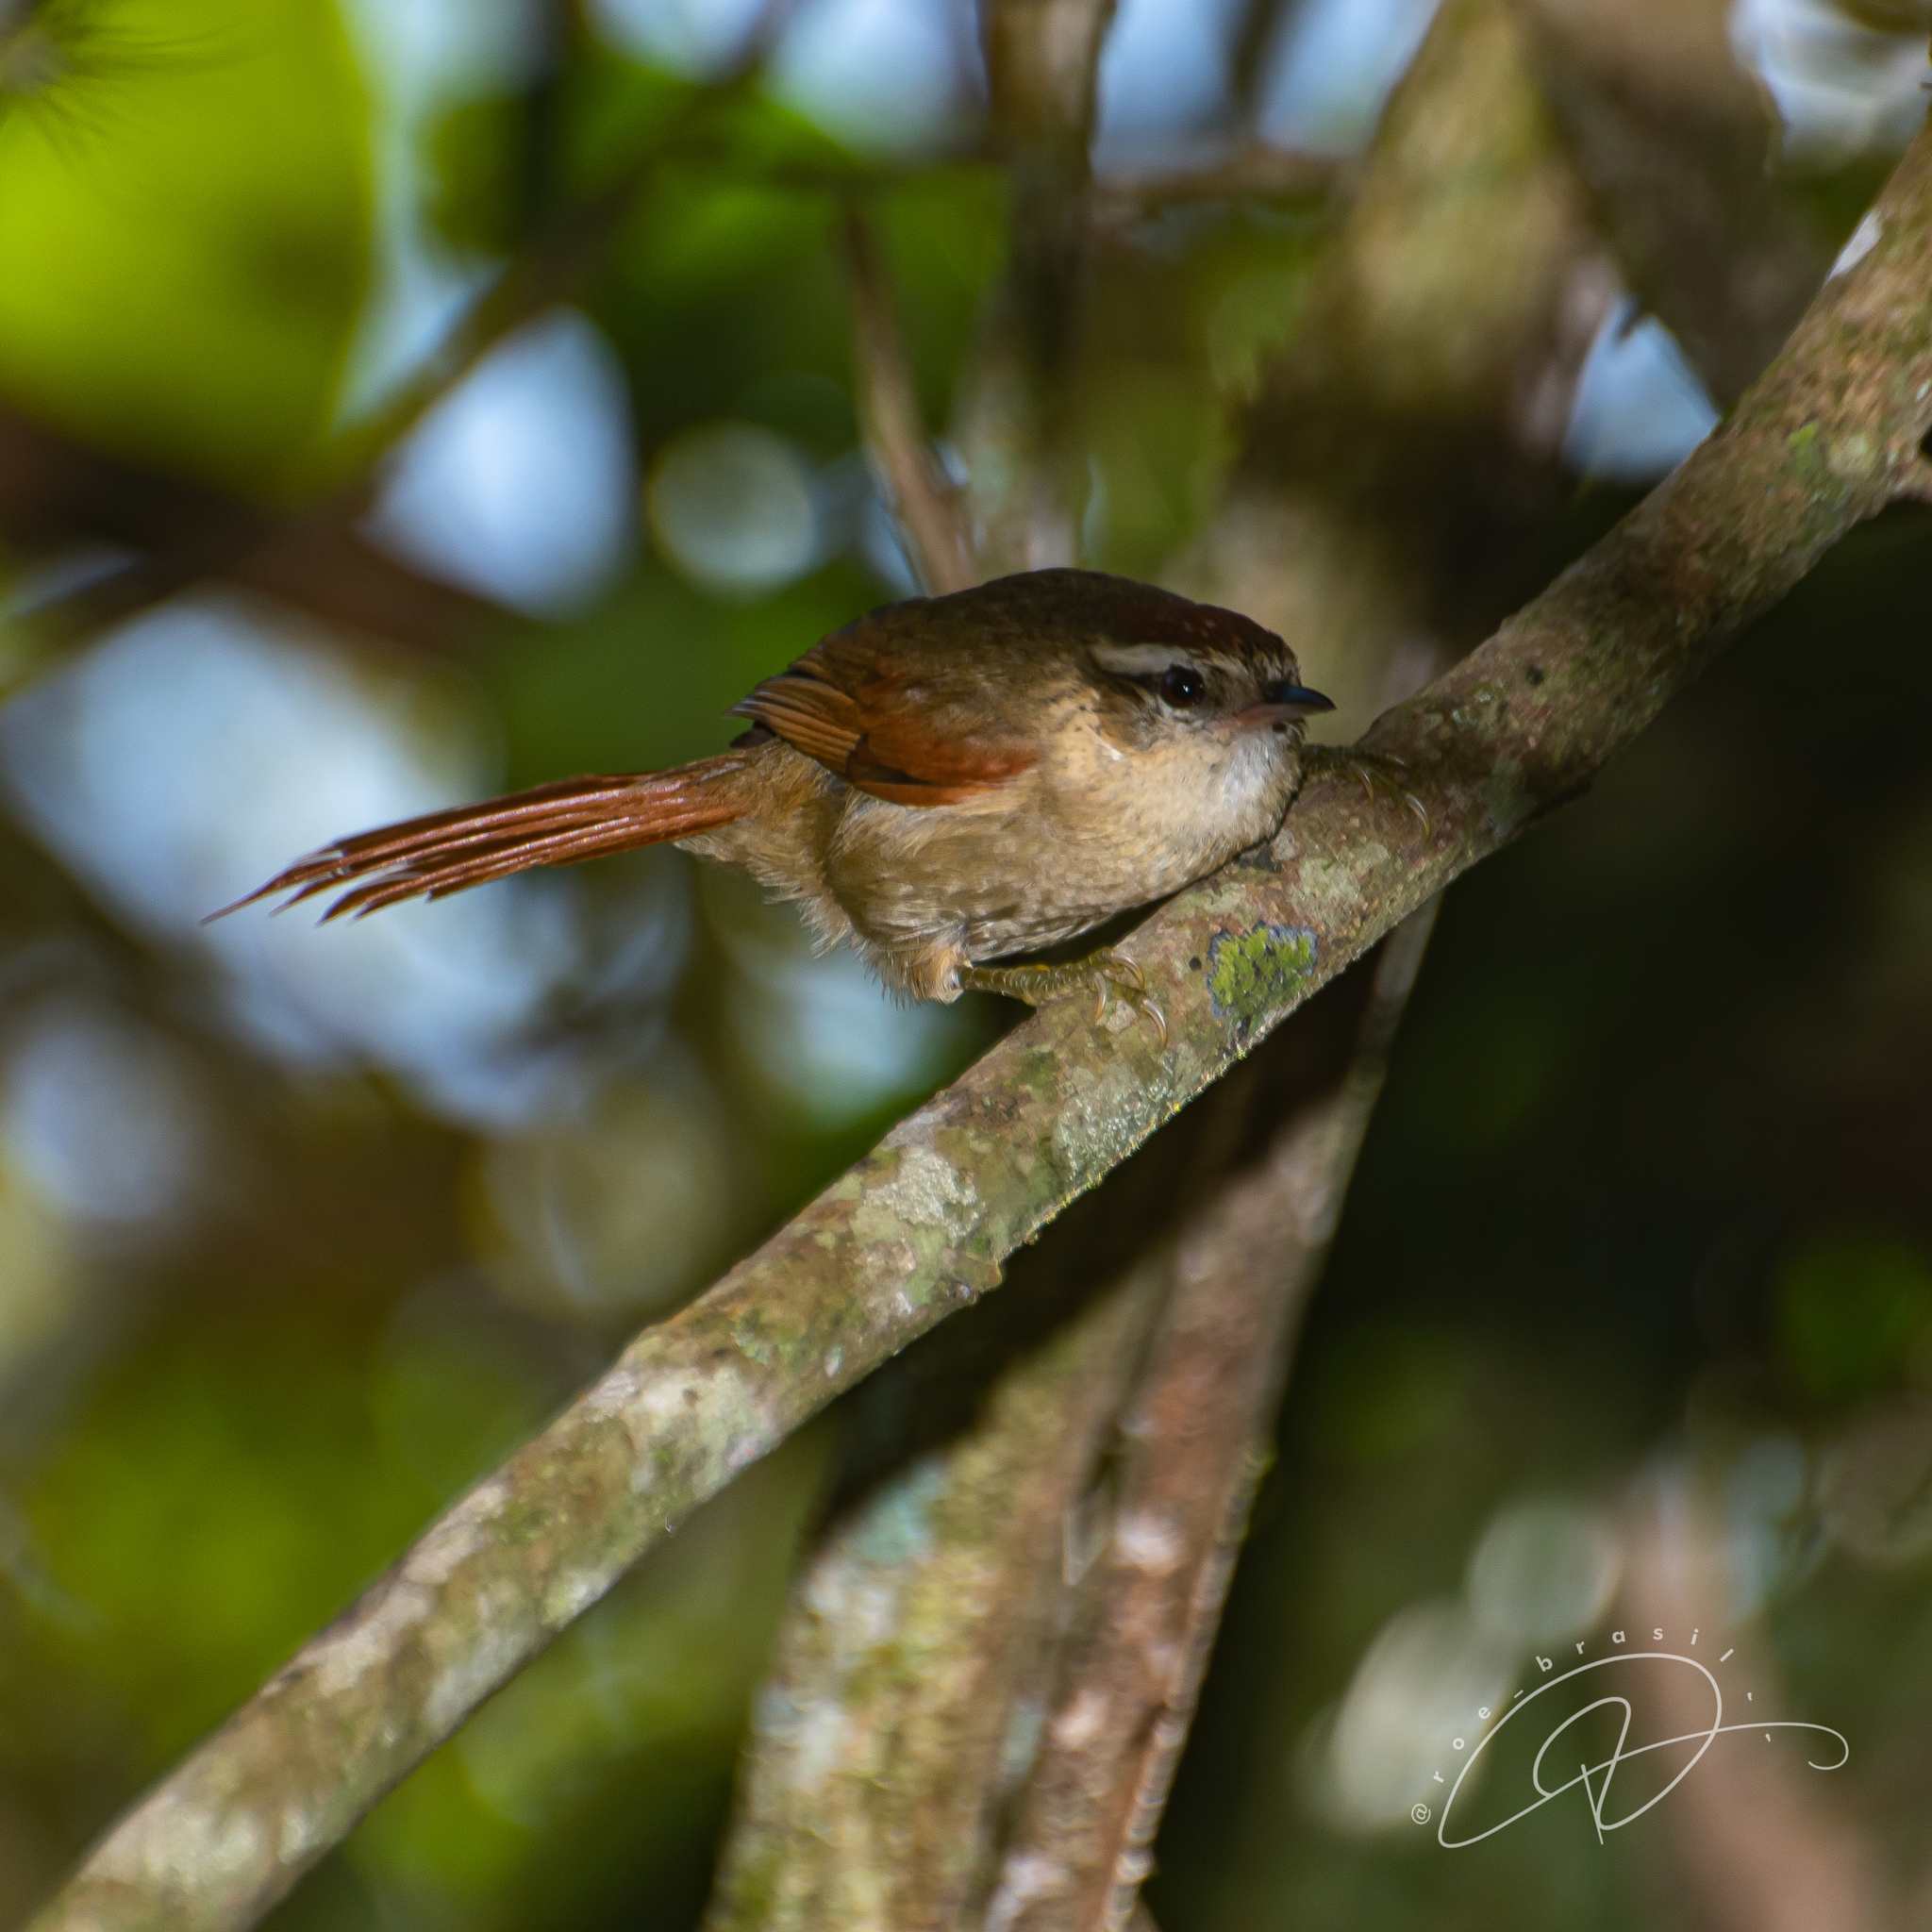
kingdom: Animalia
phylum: Chordata
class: Aves
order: Passeriformes
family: Furnariidae
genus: Cranioleuca
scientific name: Cranioleuca pallida
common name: Pallid spinetail
